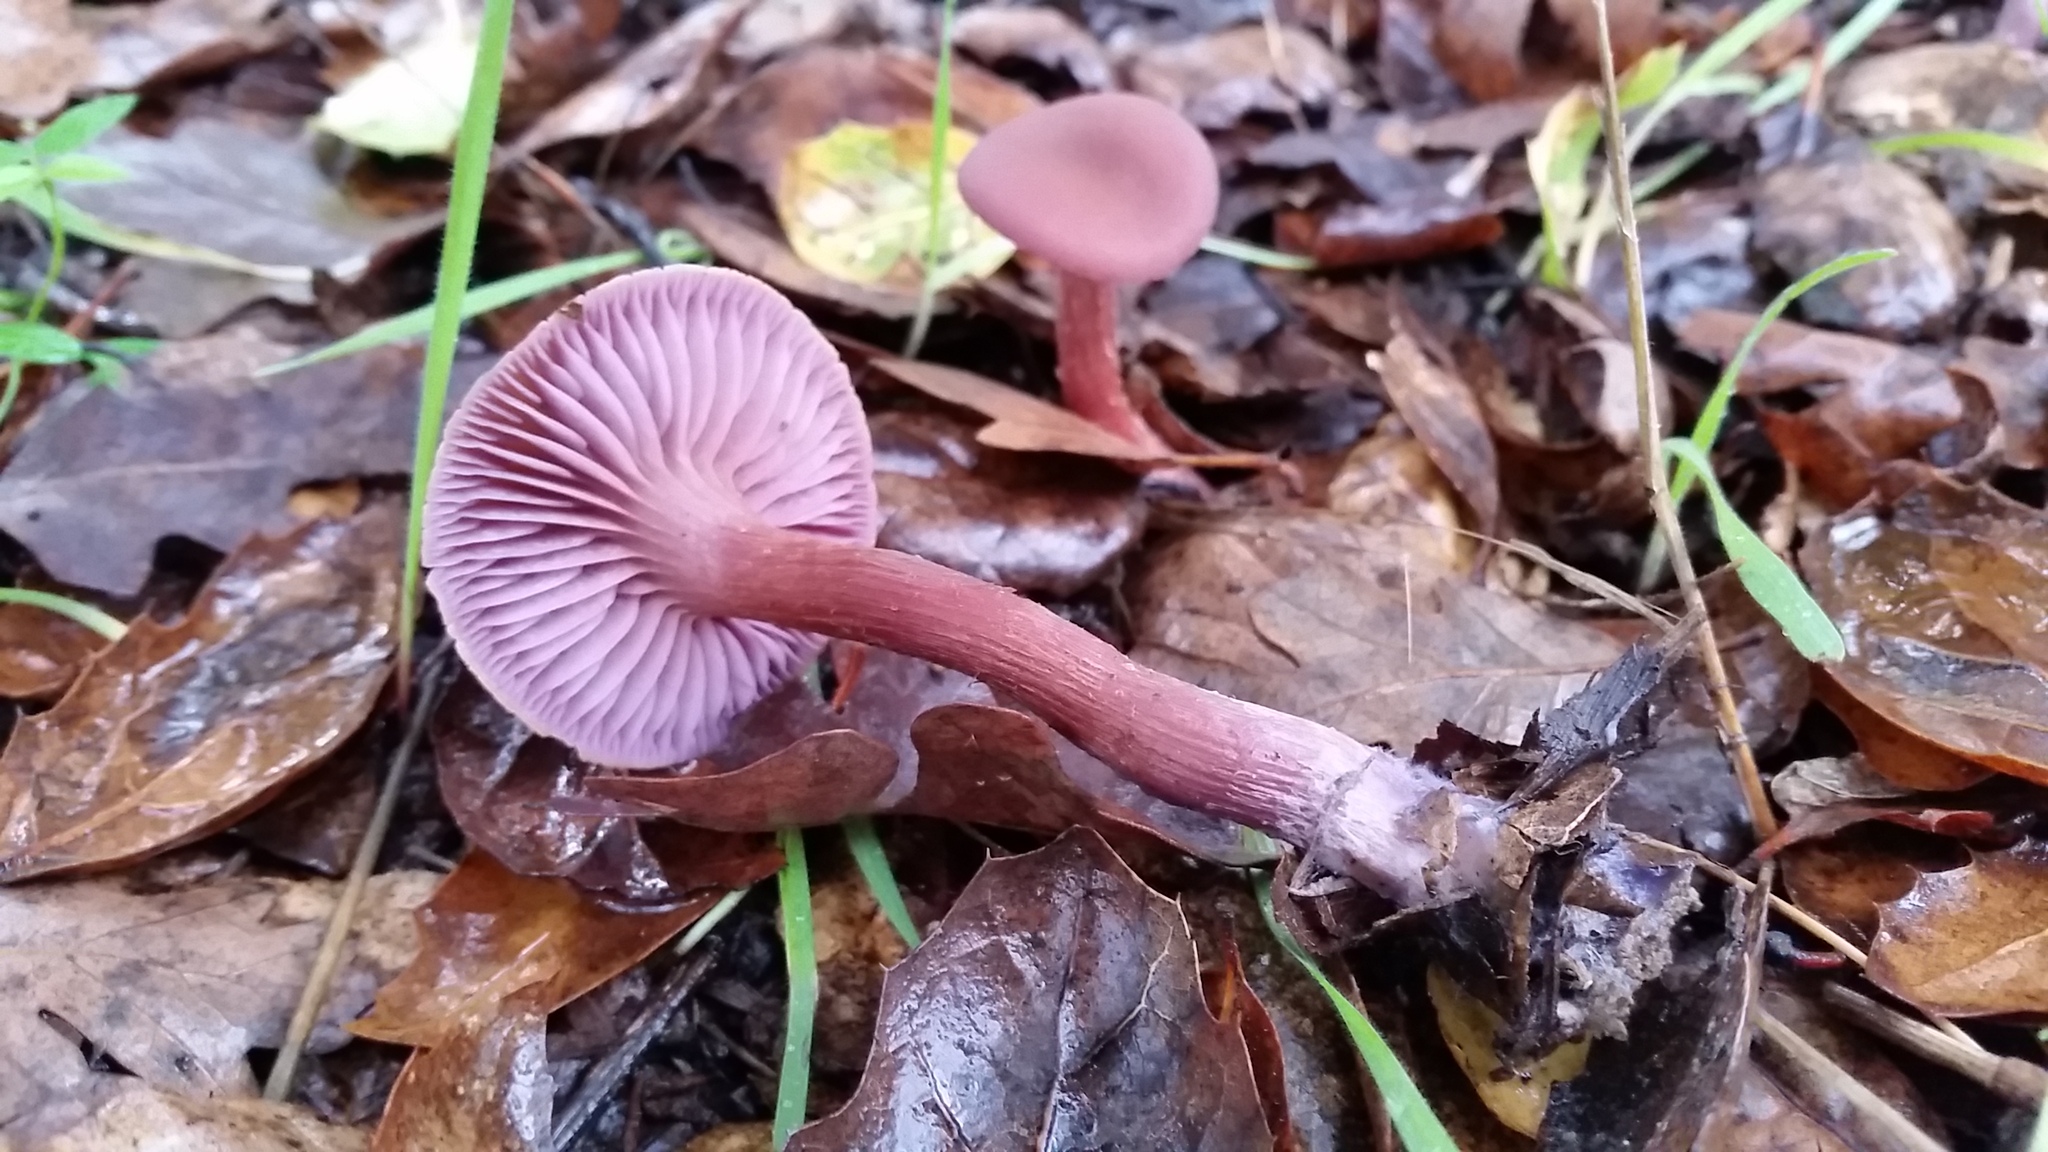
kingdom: Fungi
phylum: Basidiomycota
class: Agaricomycetes
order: Agaricales
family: Hydnangiaceae
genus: Laccaria
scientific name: Laccaria amethysteo-occidentalis
